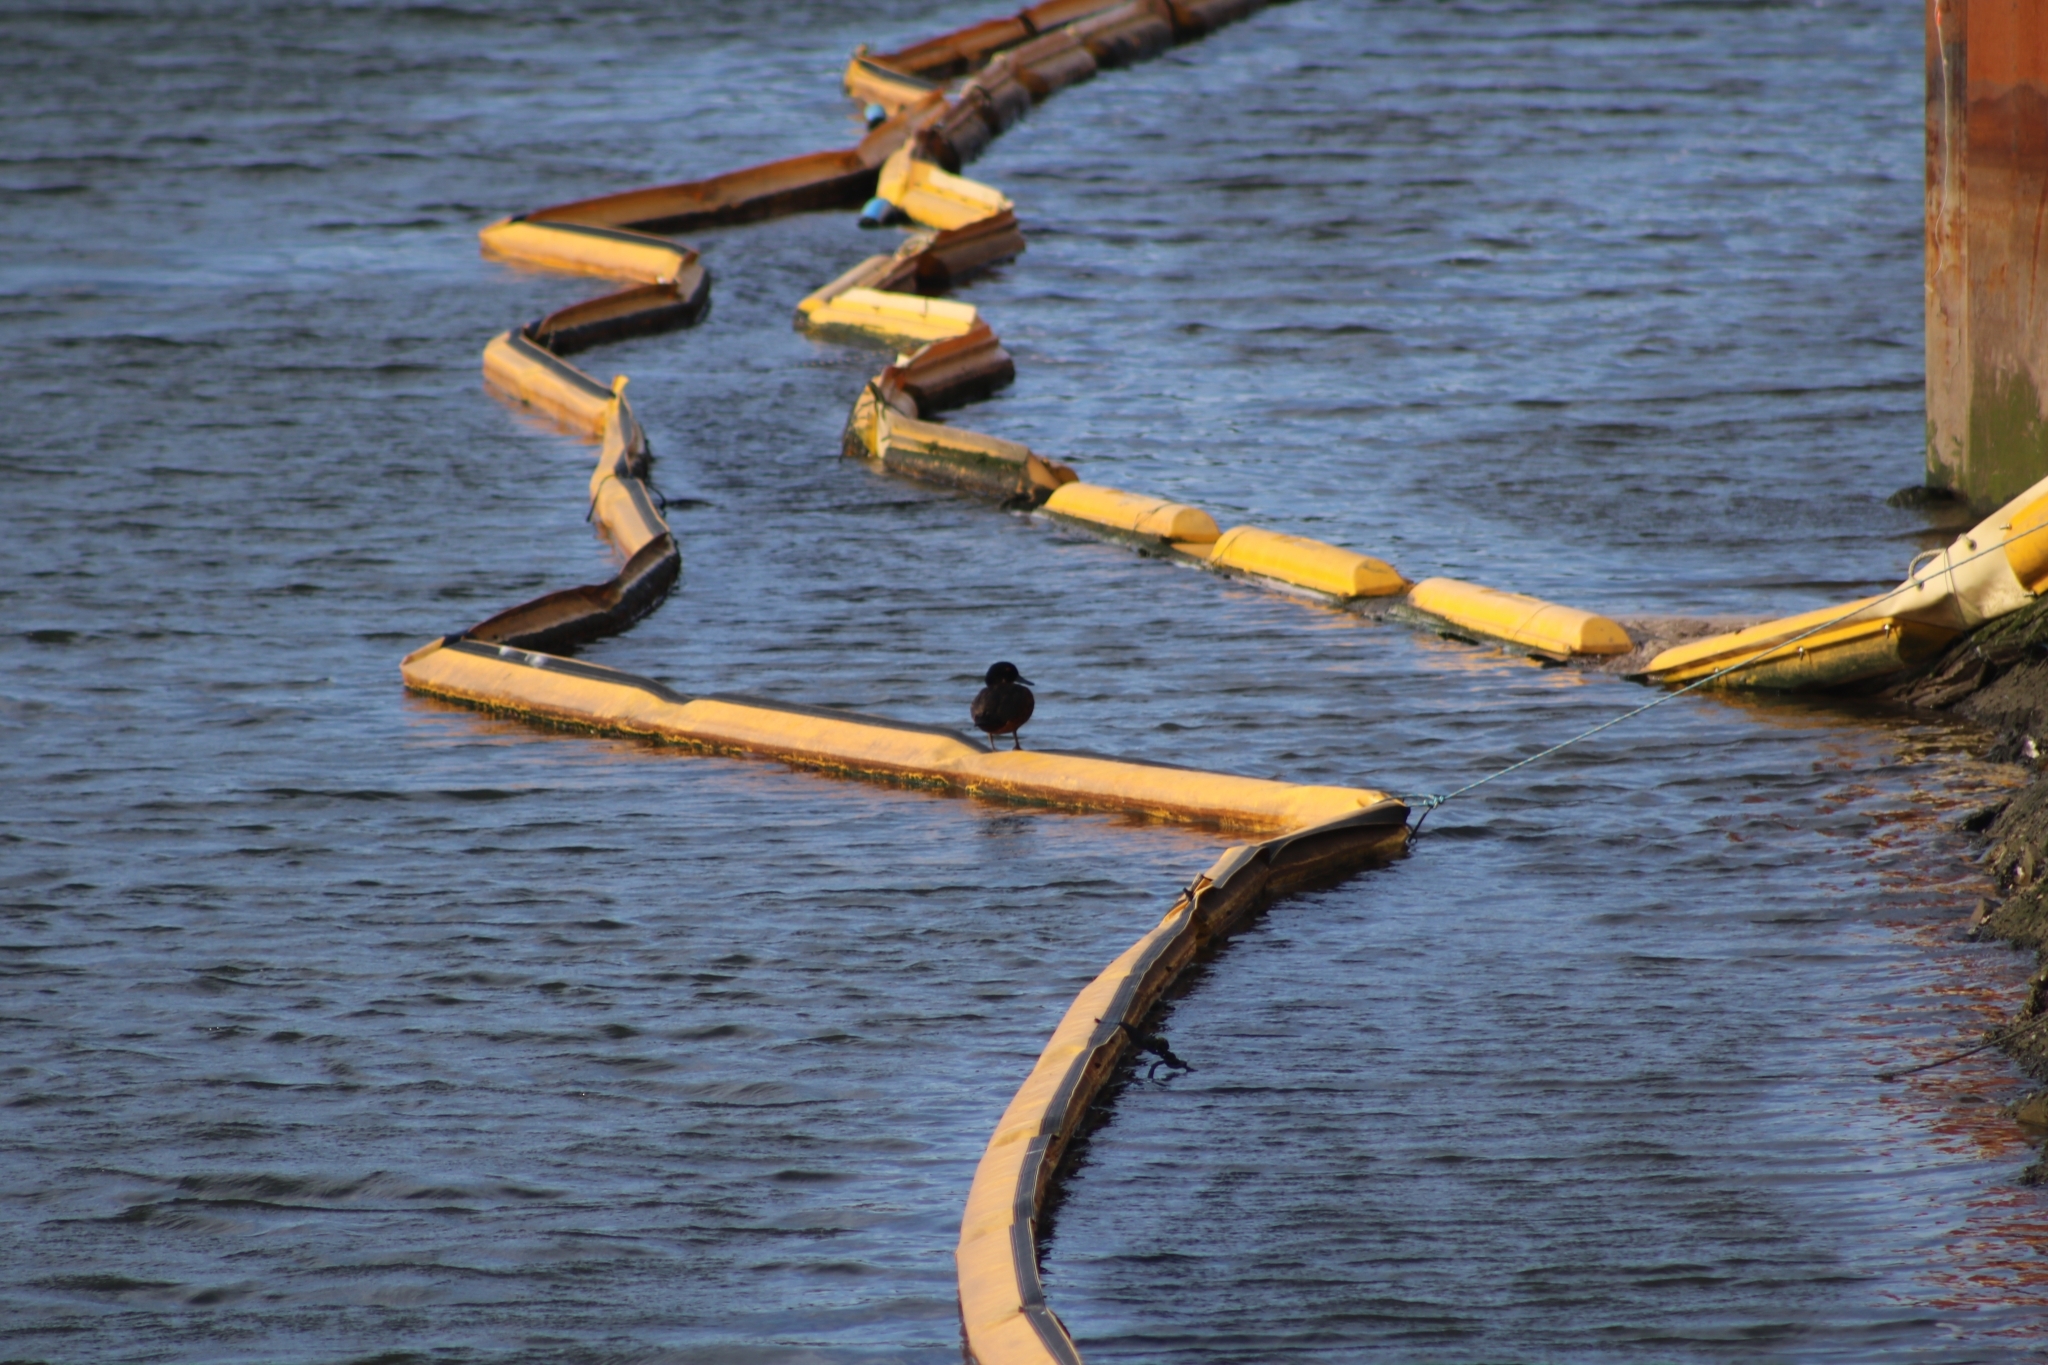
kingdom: Animalia
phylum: Chordata
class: Aves
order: Anseriformes
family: Anatidae
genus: Anas
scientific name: Anas castanea
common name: Chestnut teal
